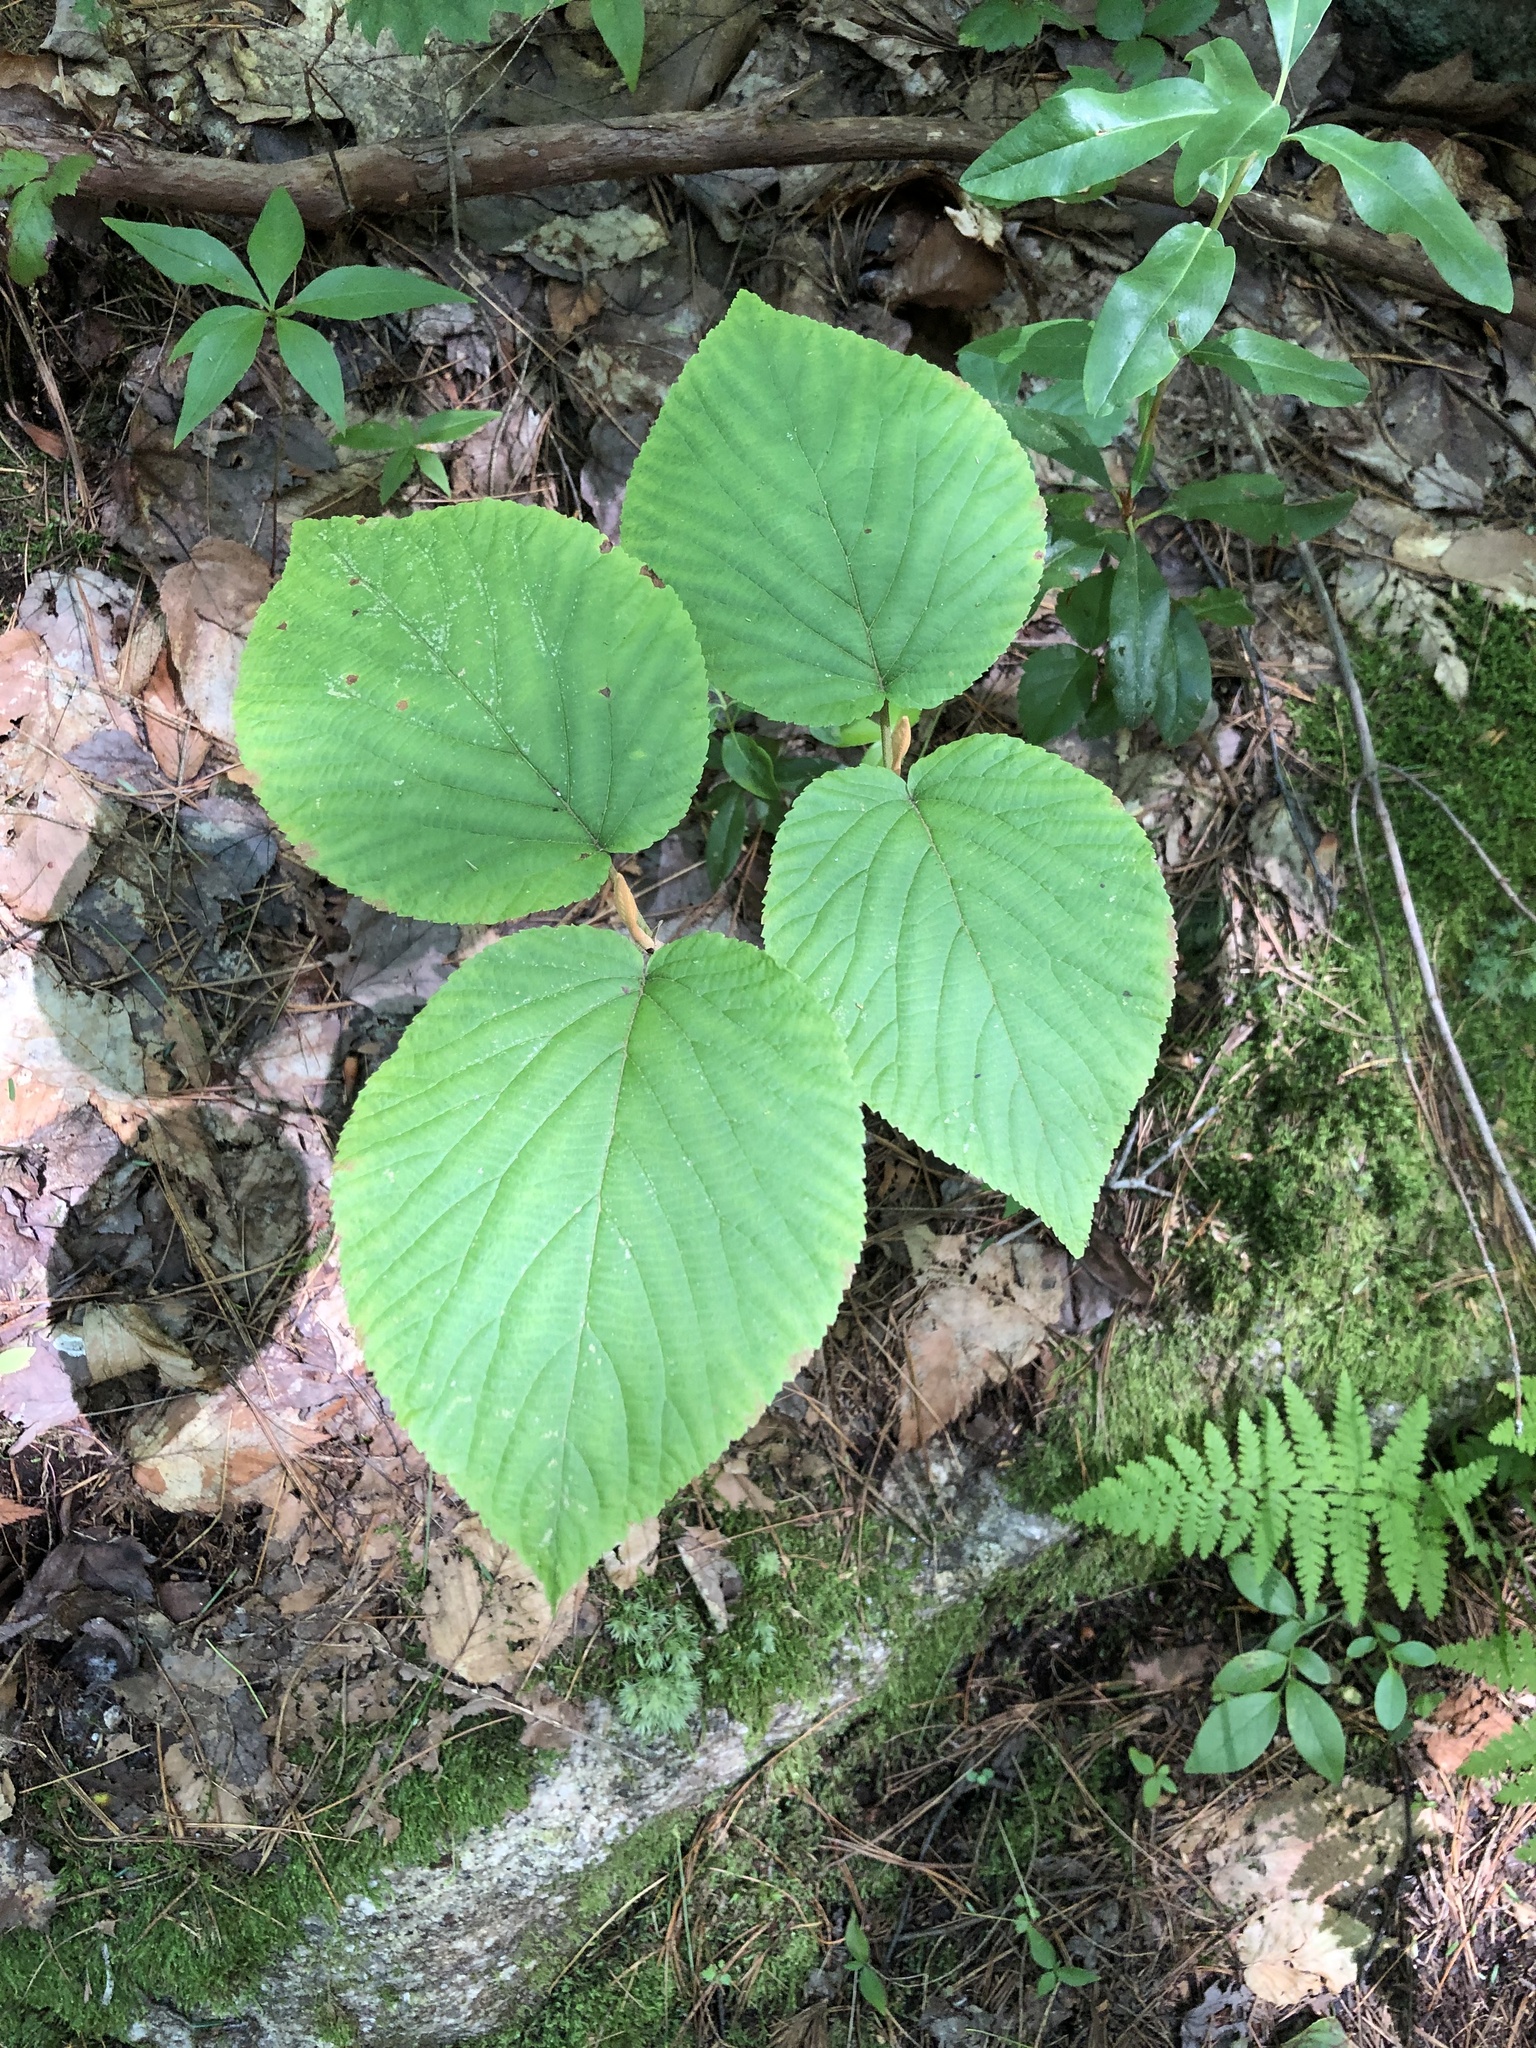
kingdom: Plantae
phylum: Tracheophyta
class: Magnoliopsida
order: Dipsacales
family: Viburnaceae
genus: Viburnum
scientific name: Viburnum lantanoides
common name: Hobblebush
